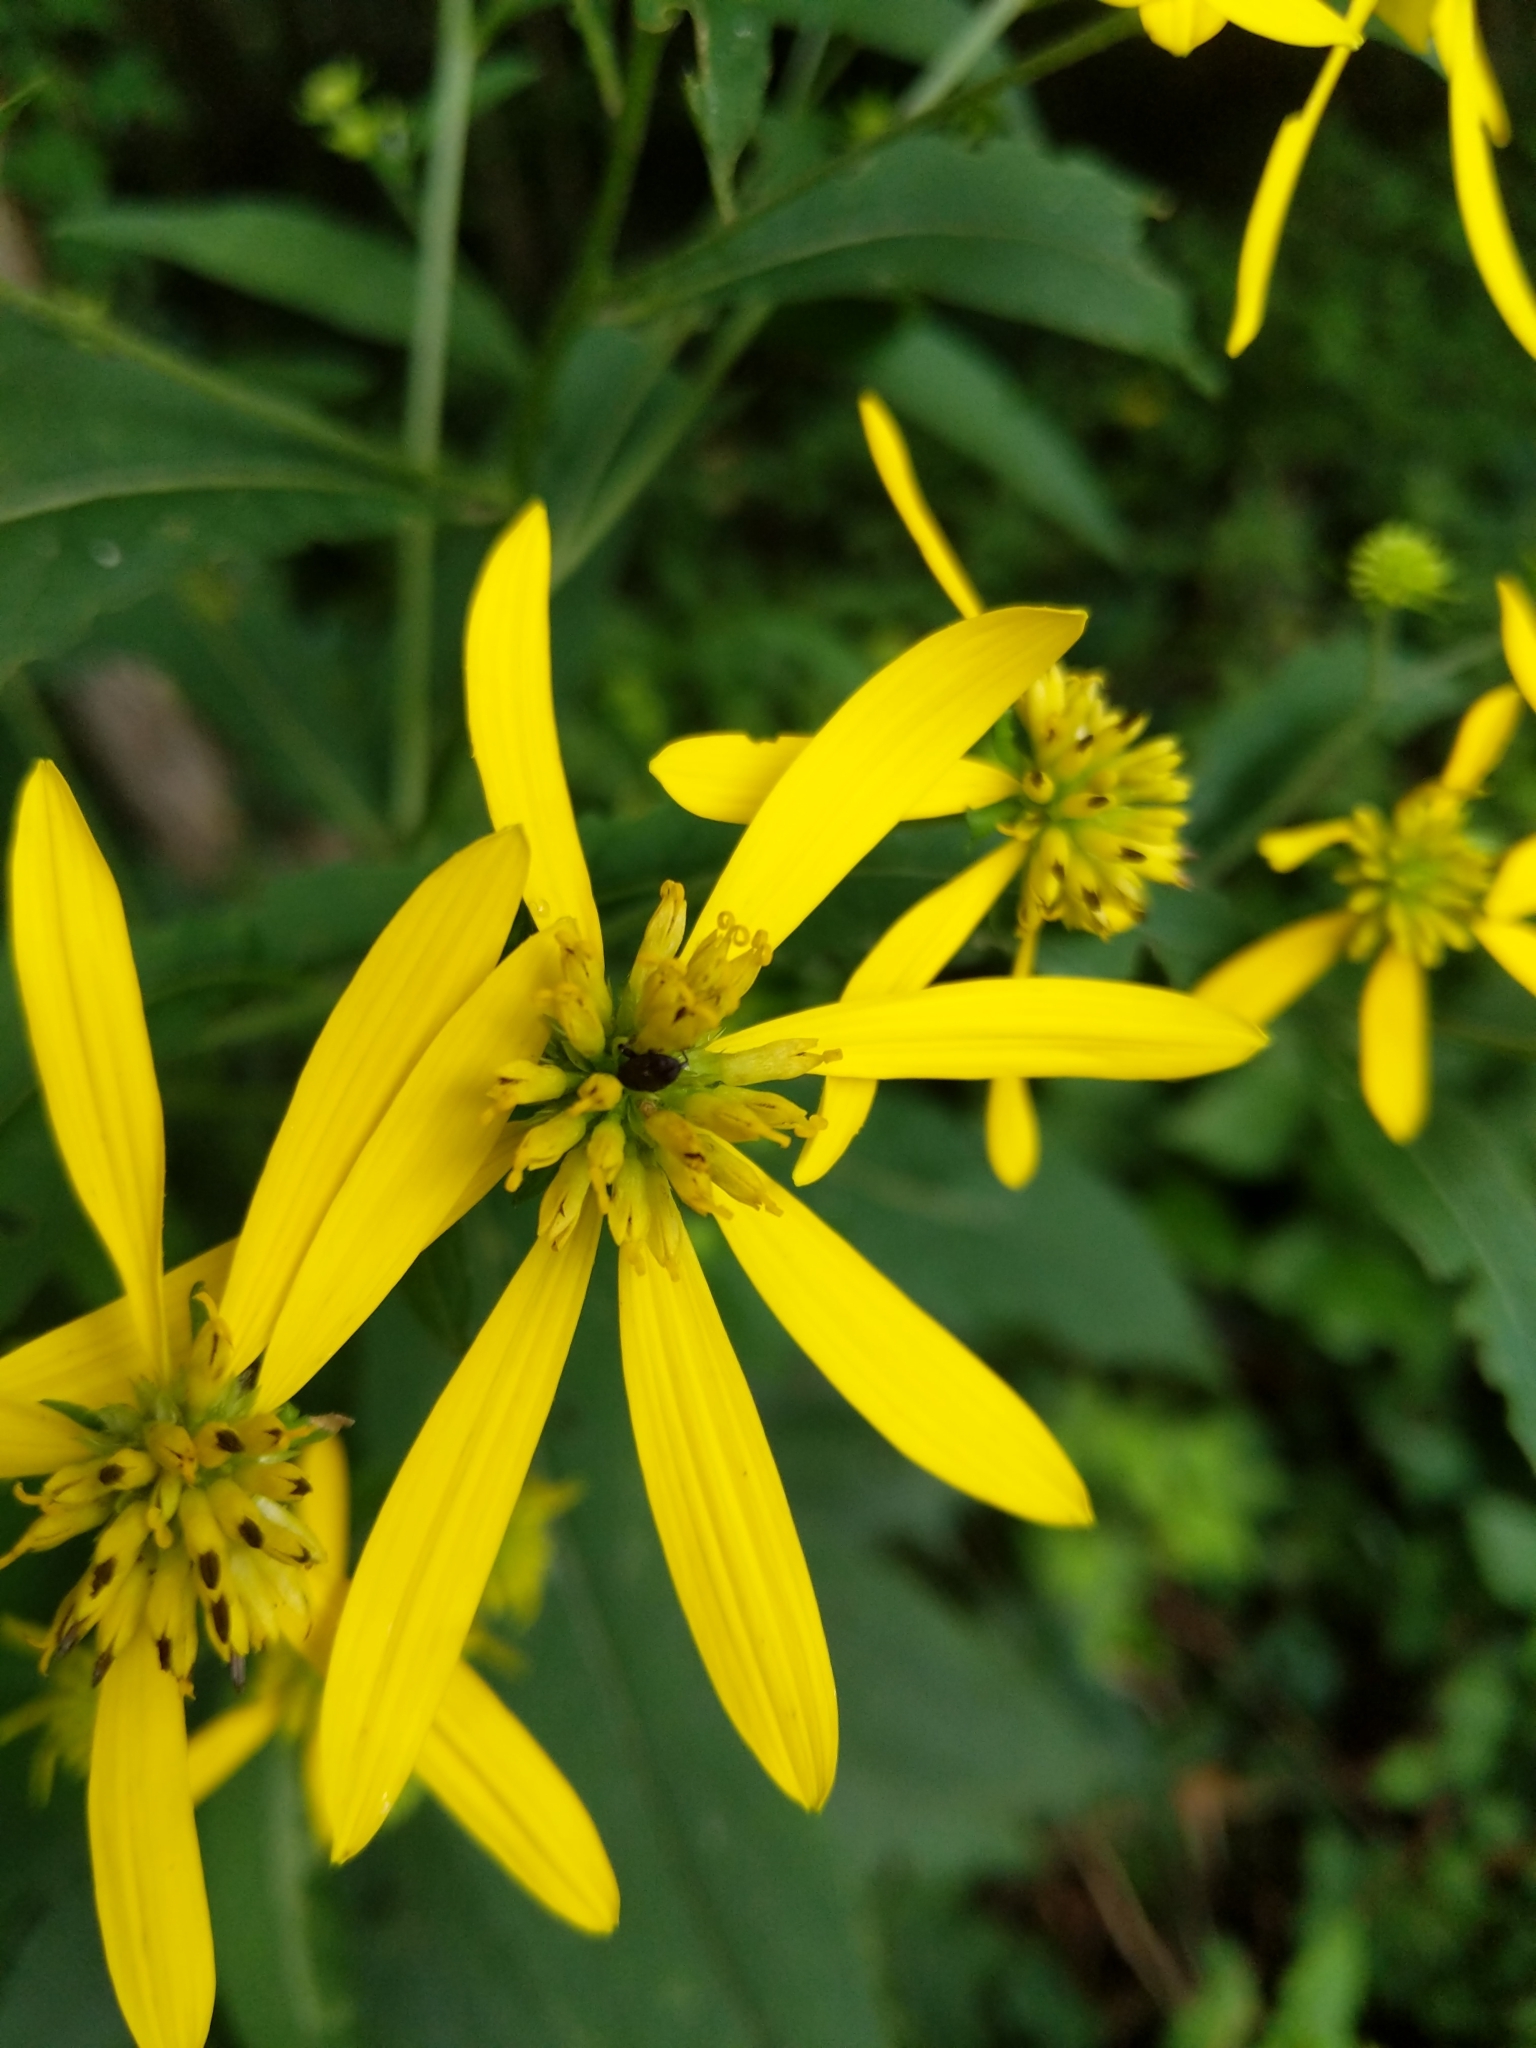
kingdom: Plantae
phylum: Tracheophyta
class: Magnoliopsida
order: Asterales
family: Asteraceae
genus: Verbesina
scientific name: Verbesina alternifolia
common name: Wingstem
